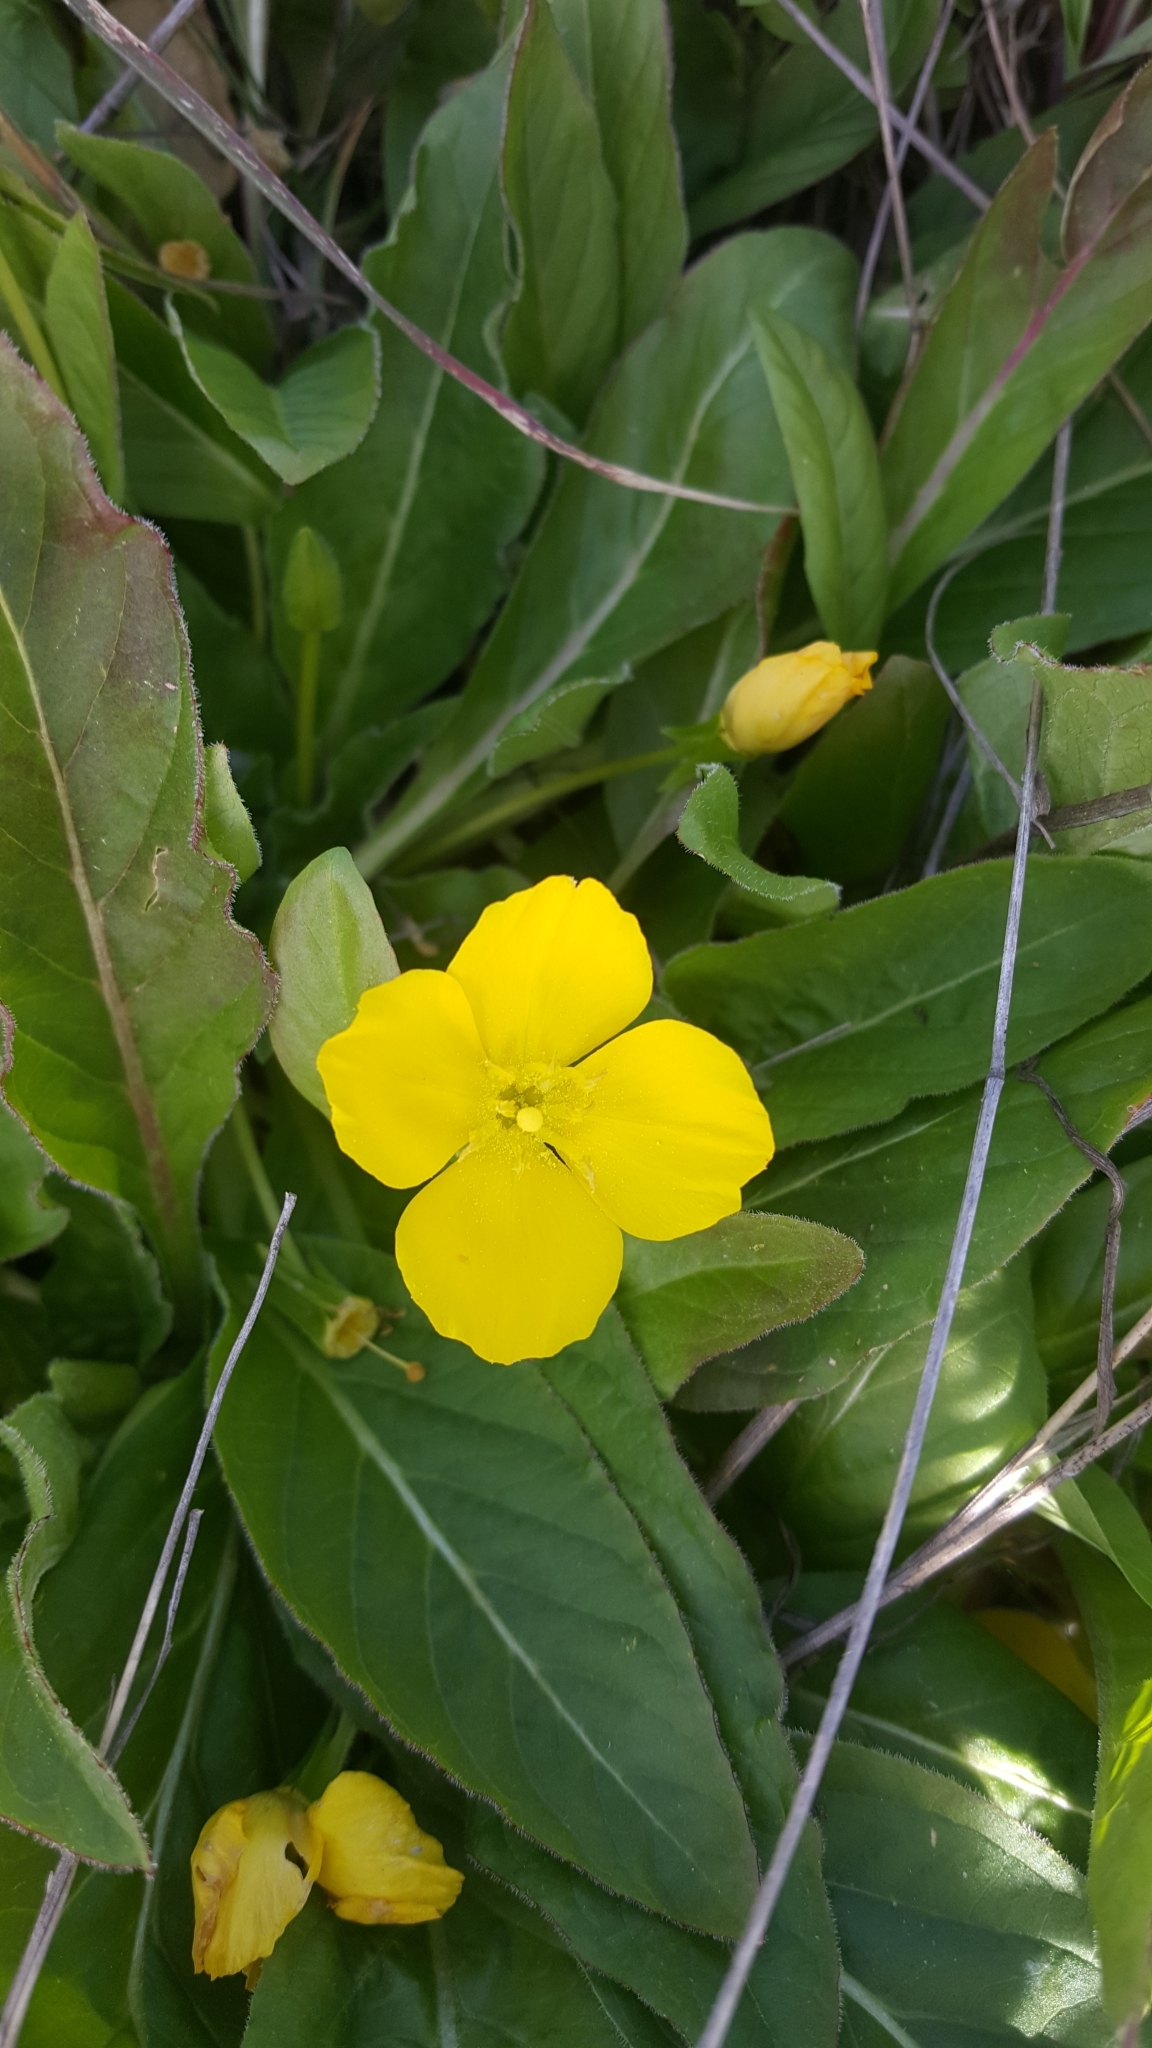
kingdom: Plantae
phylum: Tracheophyta
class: Magnoliopsida
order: Myrtales
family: Onagraceae
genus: Taraxia
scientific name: Taraxia ovata
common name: Goldeneggs
